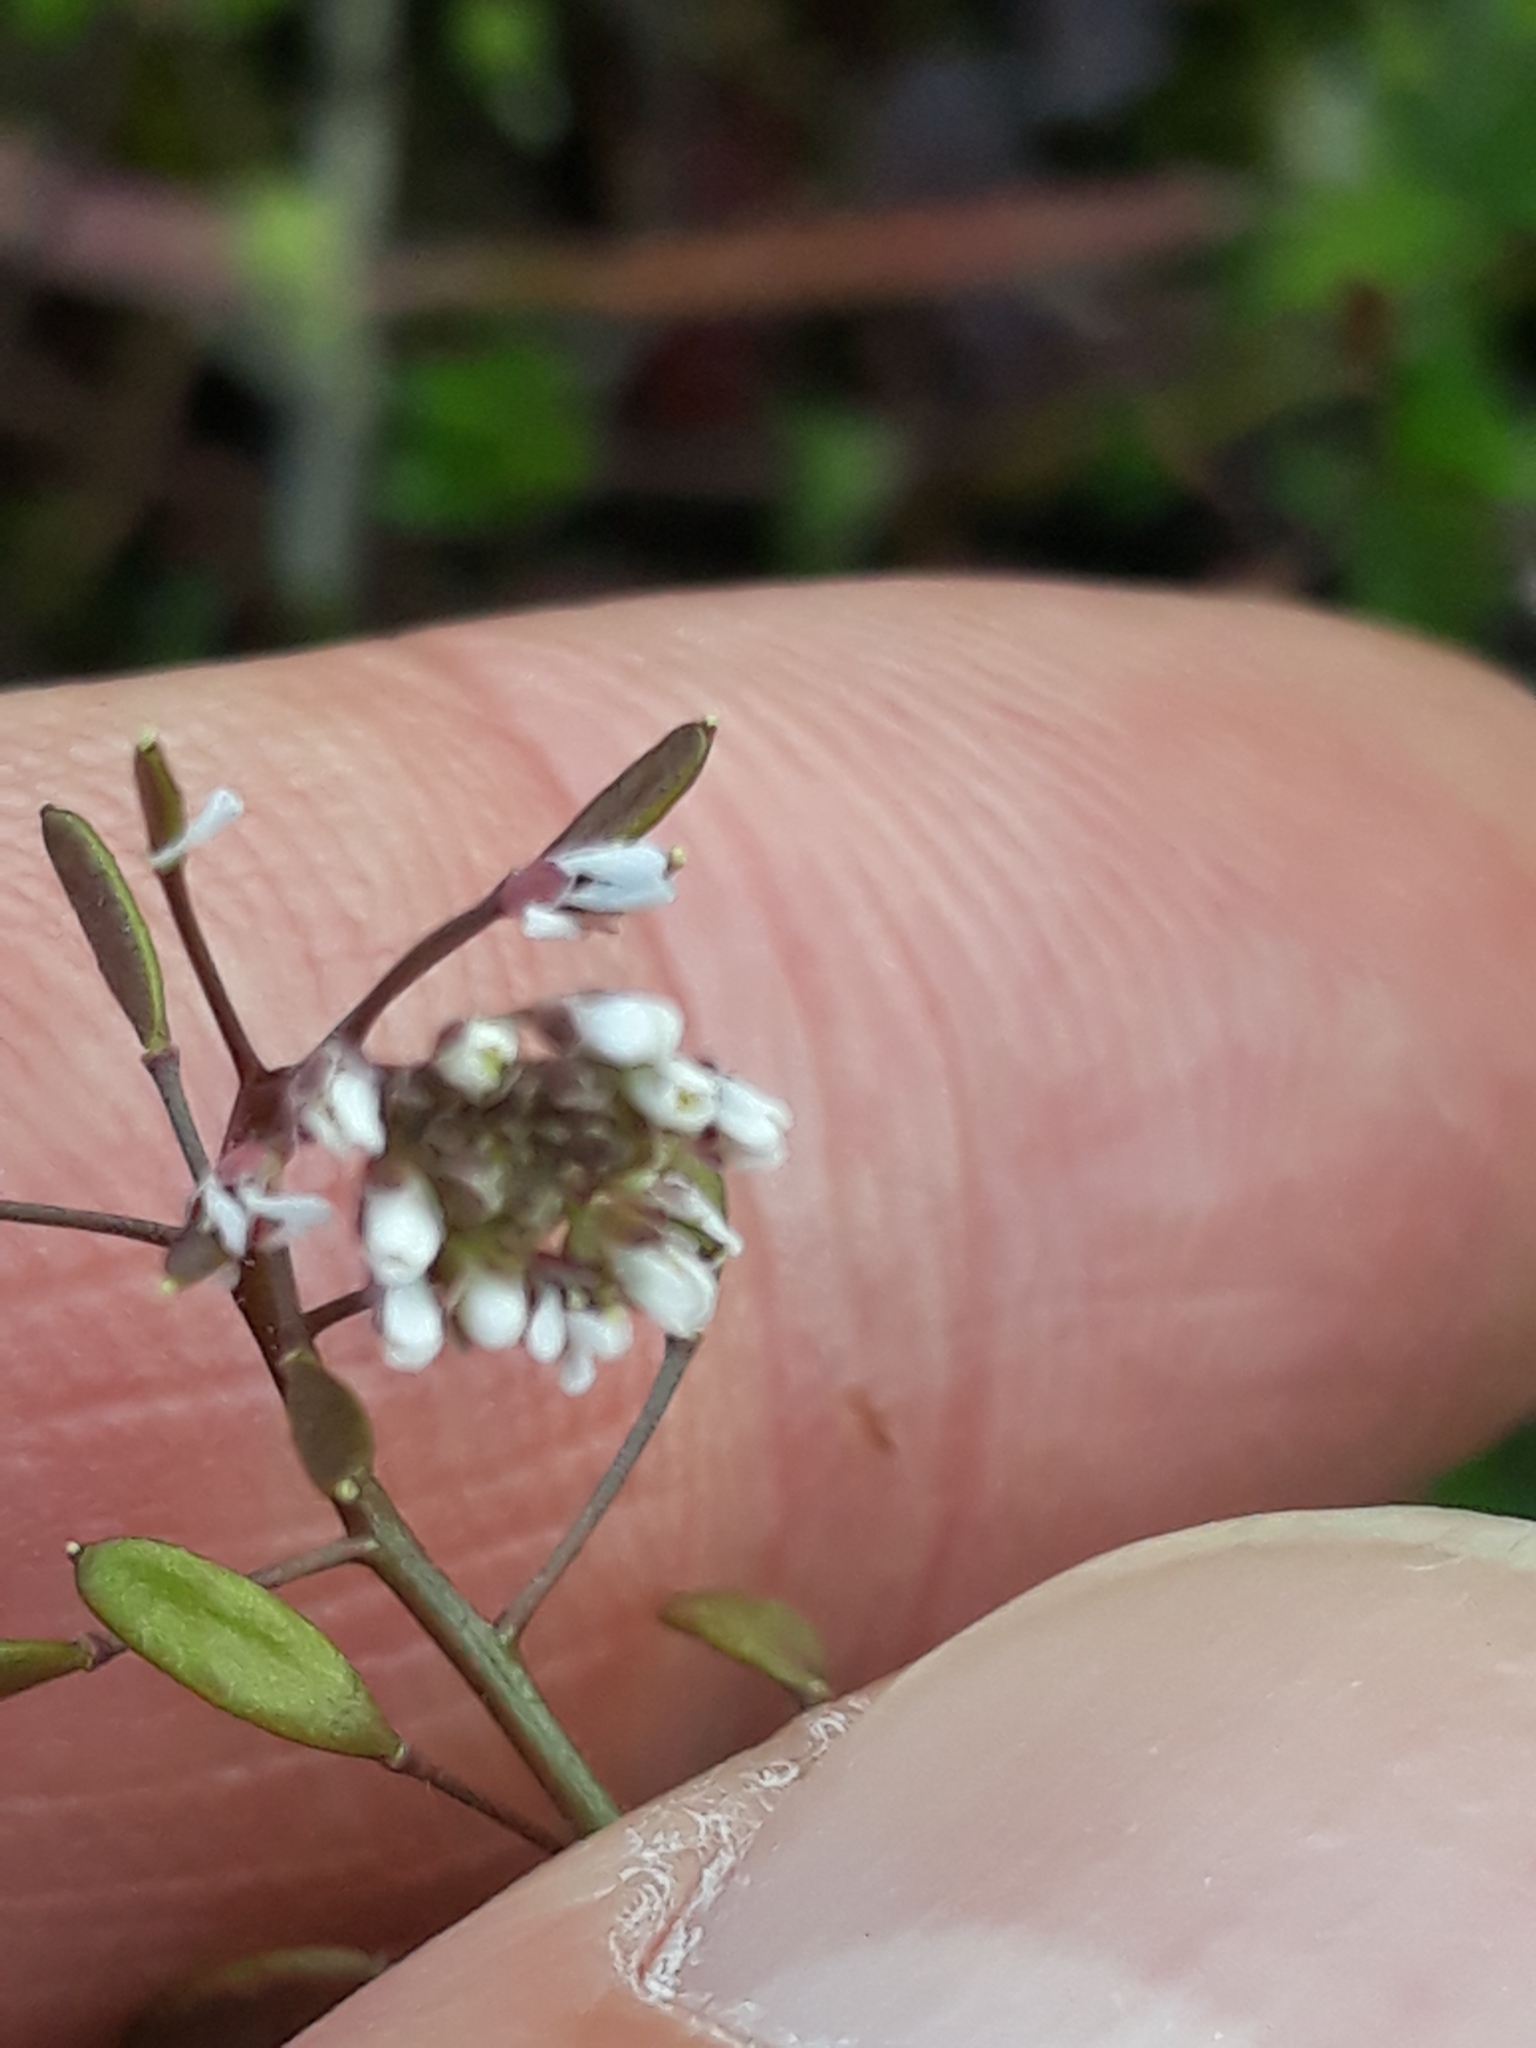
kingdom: Plantae
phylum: Tracheophyta
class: Magnoliopsida
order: Brassicales
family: Brassicaceae
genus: Draba
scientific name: Draba verna
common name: Spring draba
